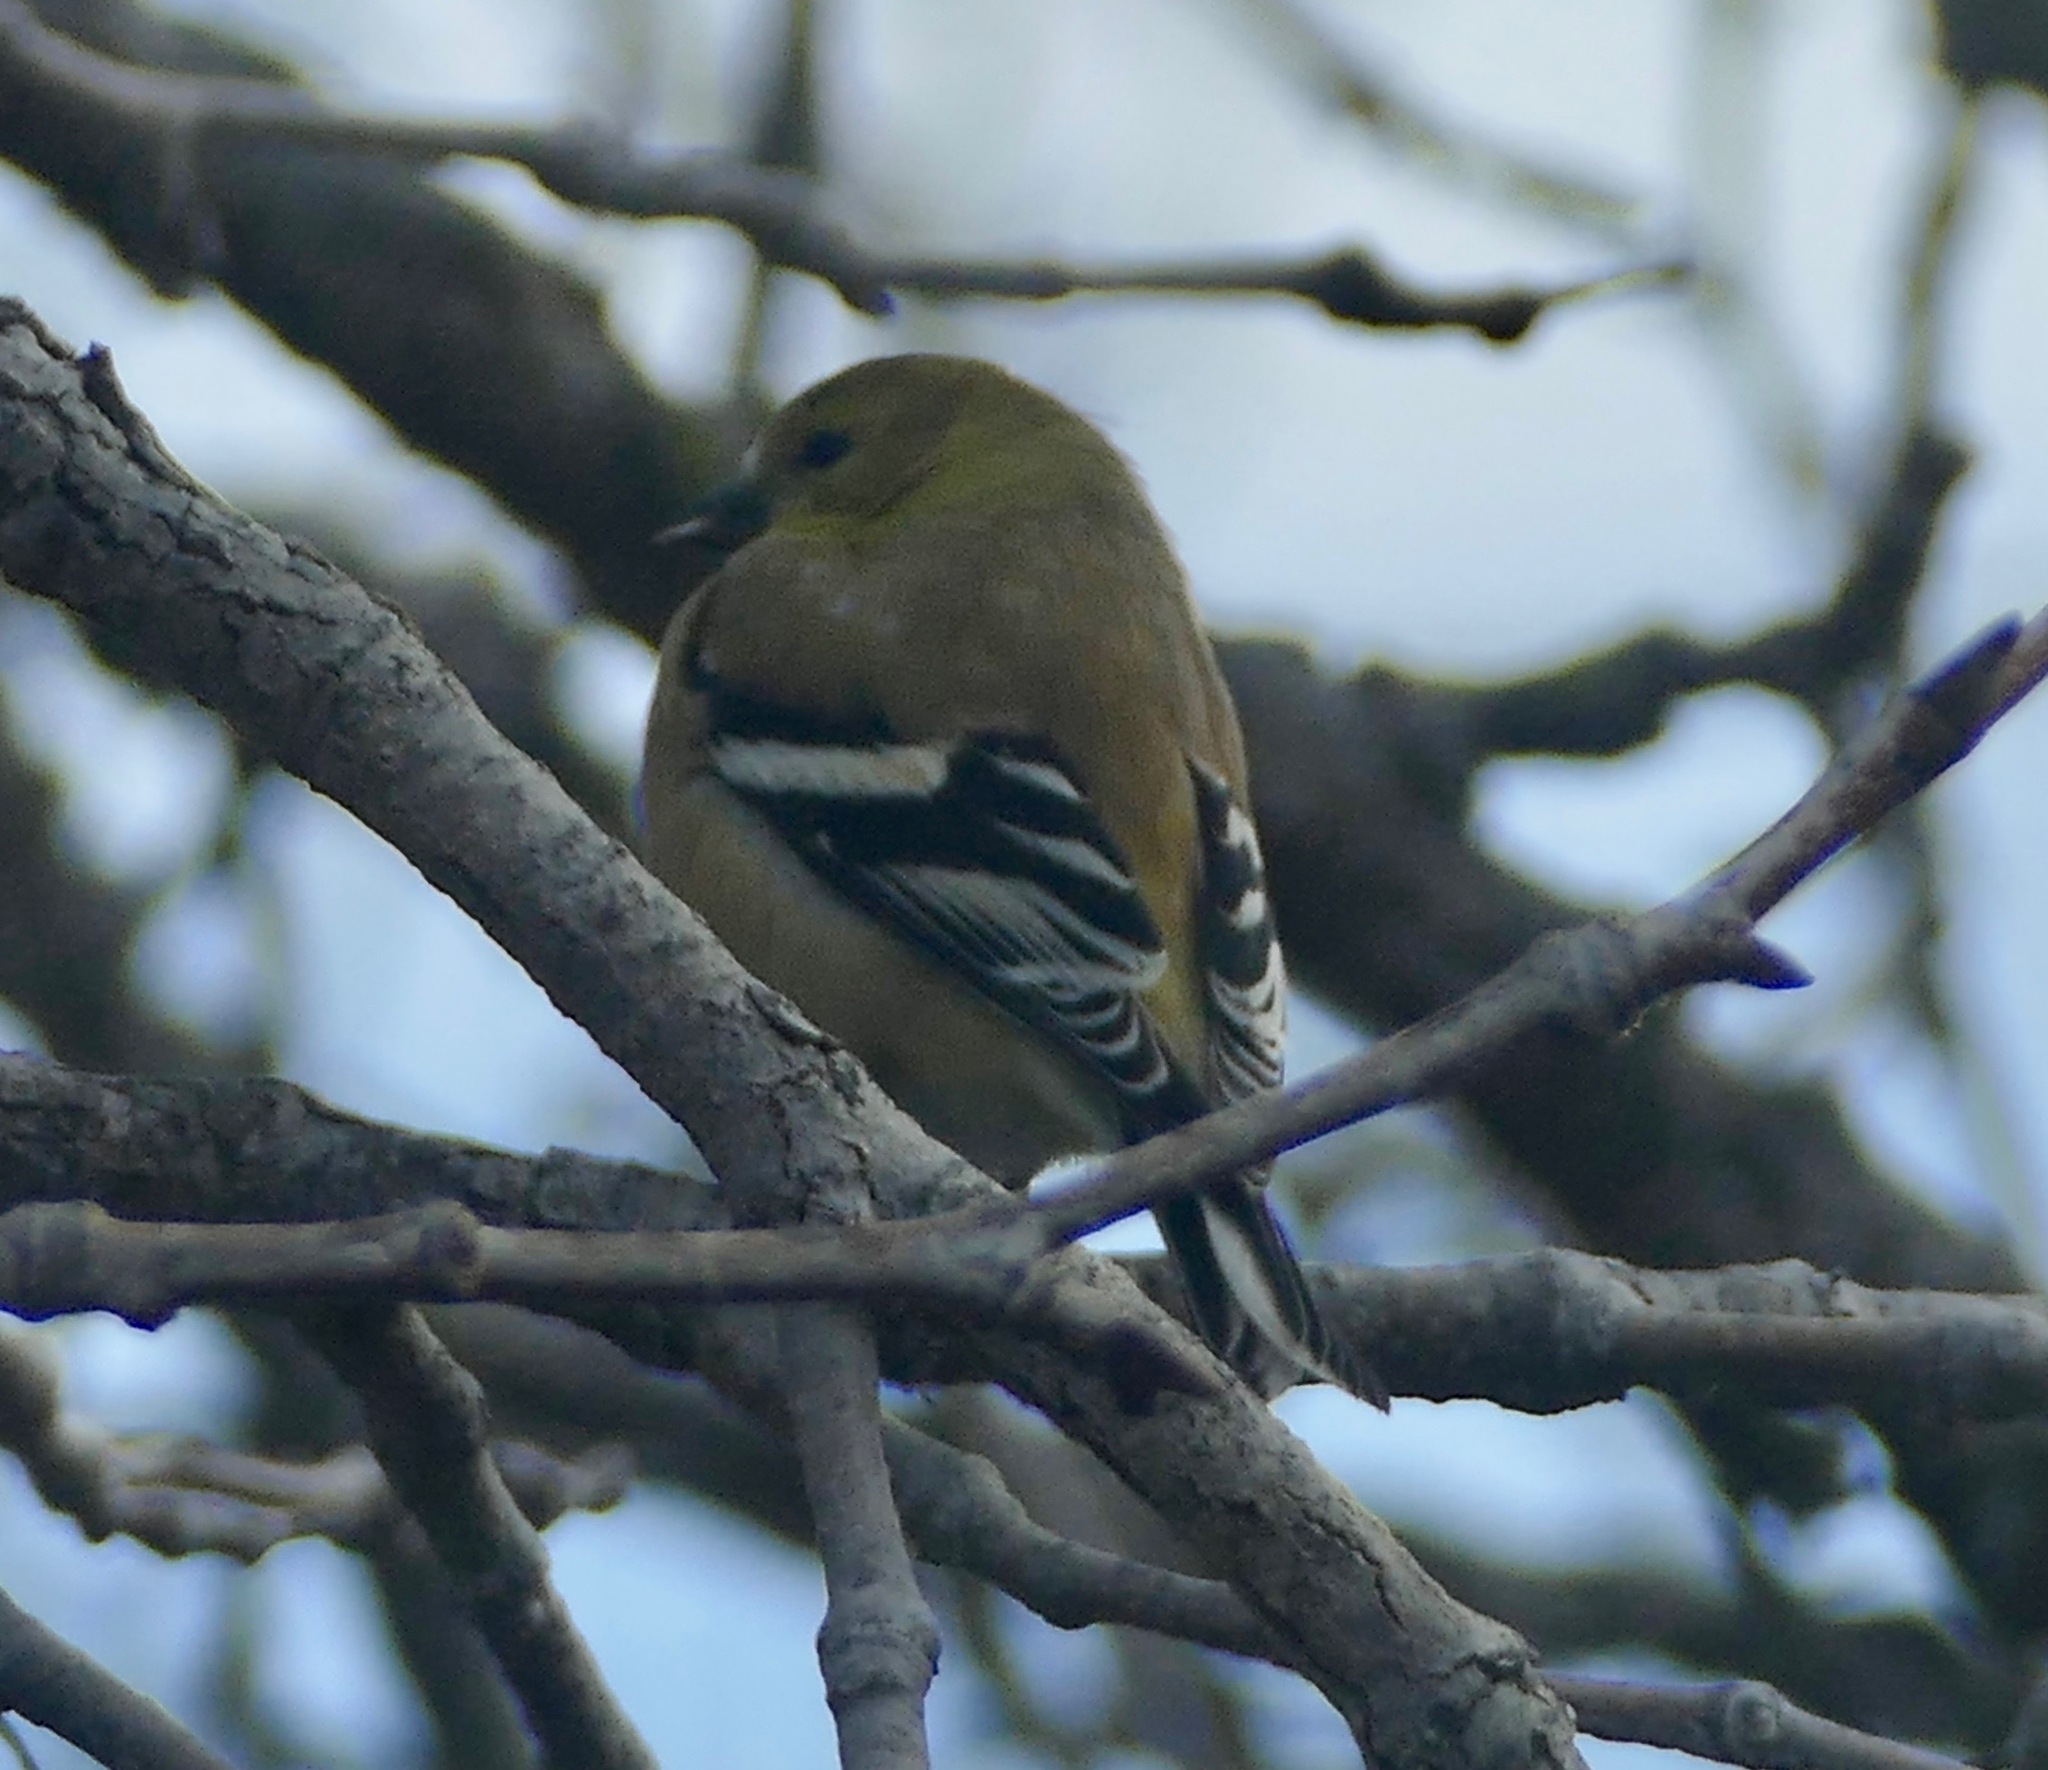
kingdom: Animalia
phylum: Chordata
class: Aves
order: Passeriformes
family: Fringillidae
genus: Spinus
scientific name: Spinus tristis
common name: American goldfinch
